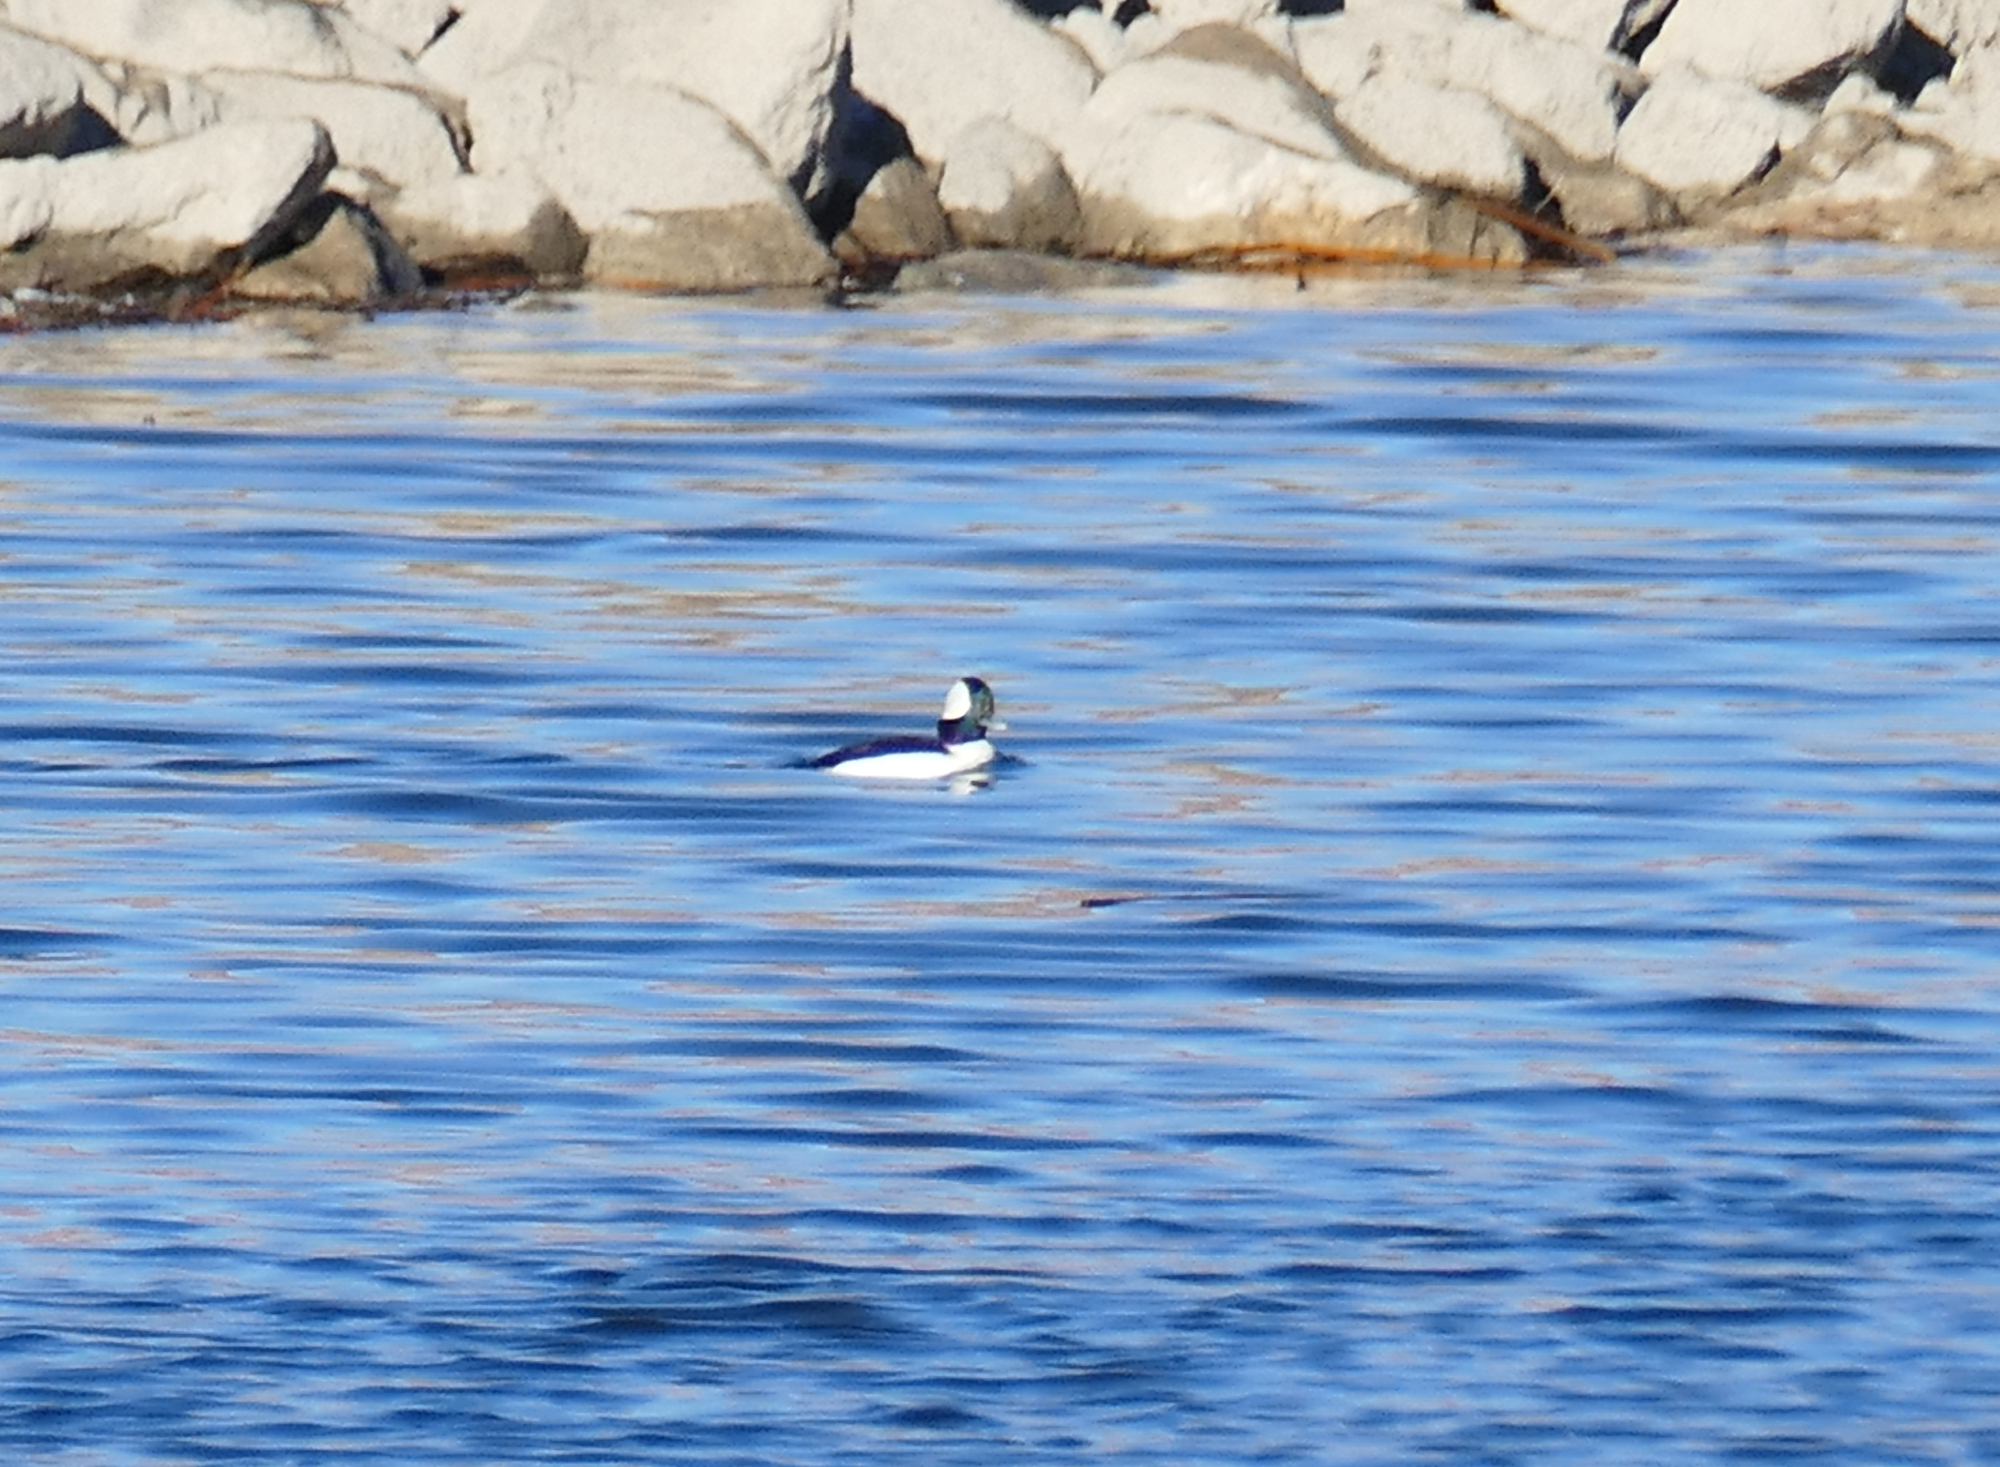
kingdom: Animalia
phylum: Chordata
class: Aves
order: Anseriformes
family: Anatidae
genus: Bucephala
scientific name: Bucephala albeola
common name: Bufflehead
